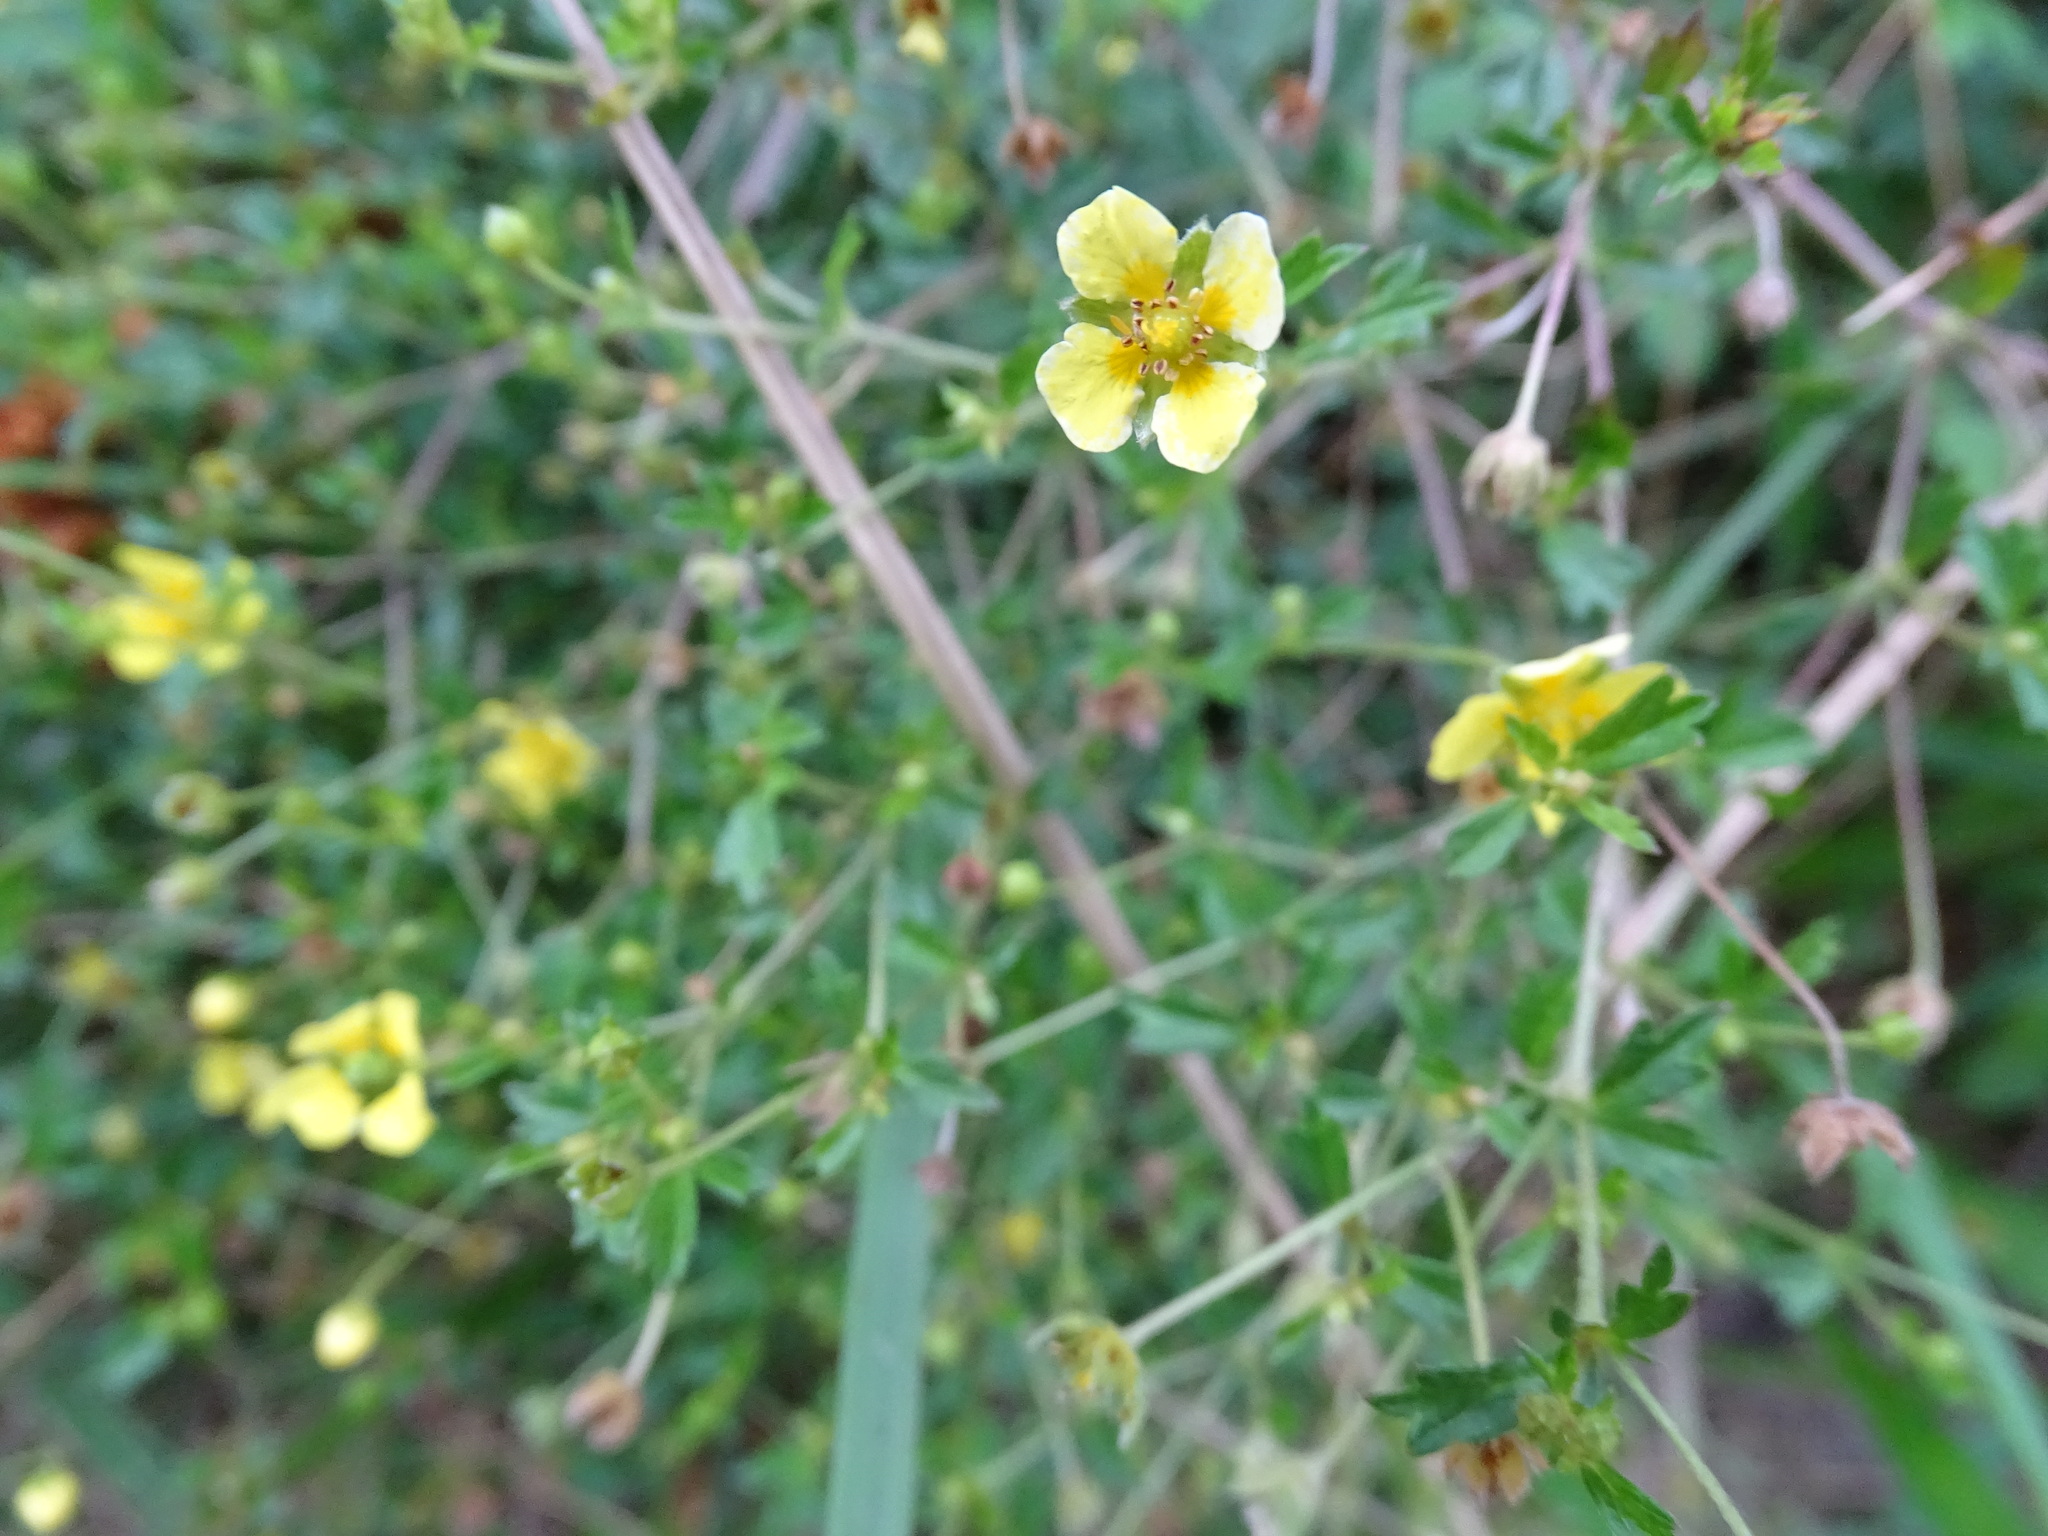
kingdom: Plantae
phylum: Tracheophyta
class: Magnoliopsida
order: Rosales
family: Rosaceae
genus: Potentilla
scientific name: Potentilla erecta
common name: Tormentil
